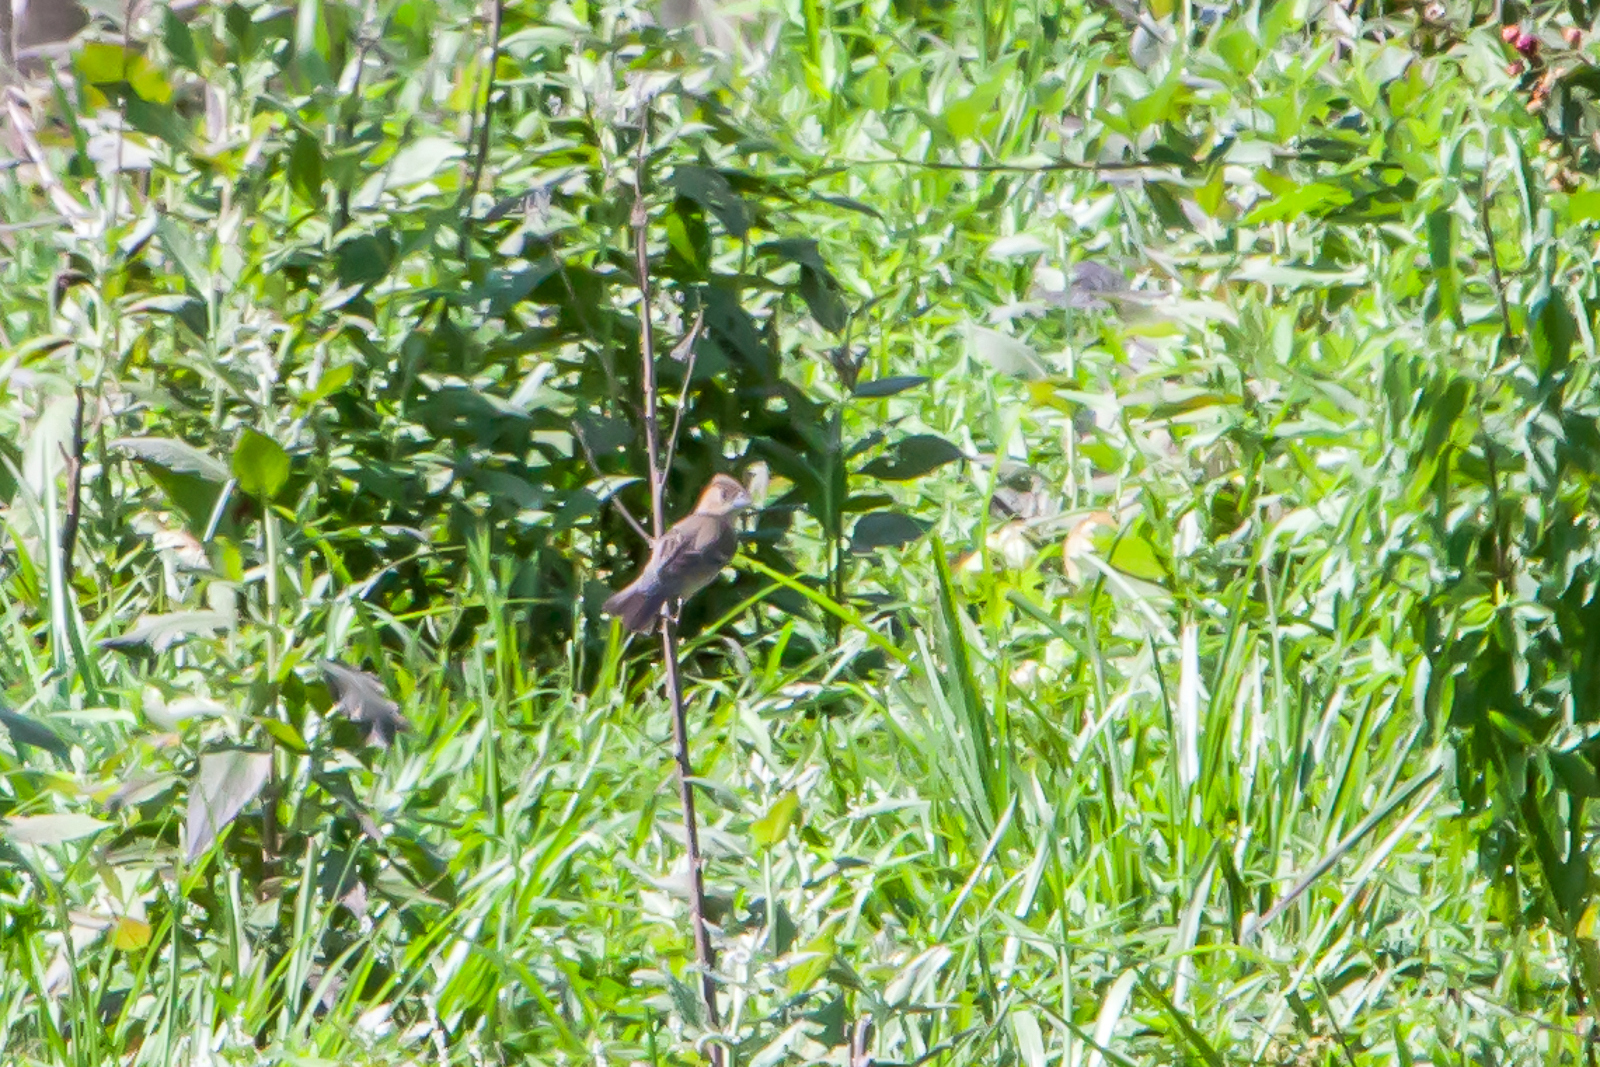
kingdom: Animalia
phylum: Chordata
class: Aves
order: Passeriformes
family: Cardinalidae
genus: Passerina
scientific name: Passerina cyanea
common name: Indigo bunting
